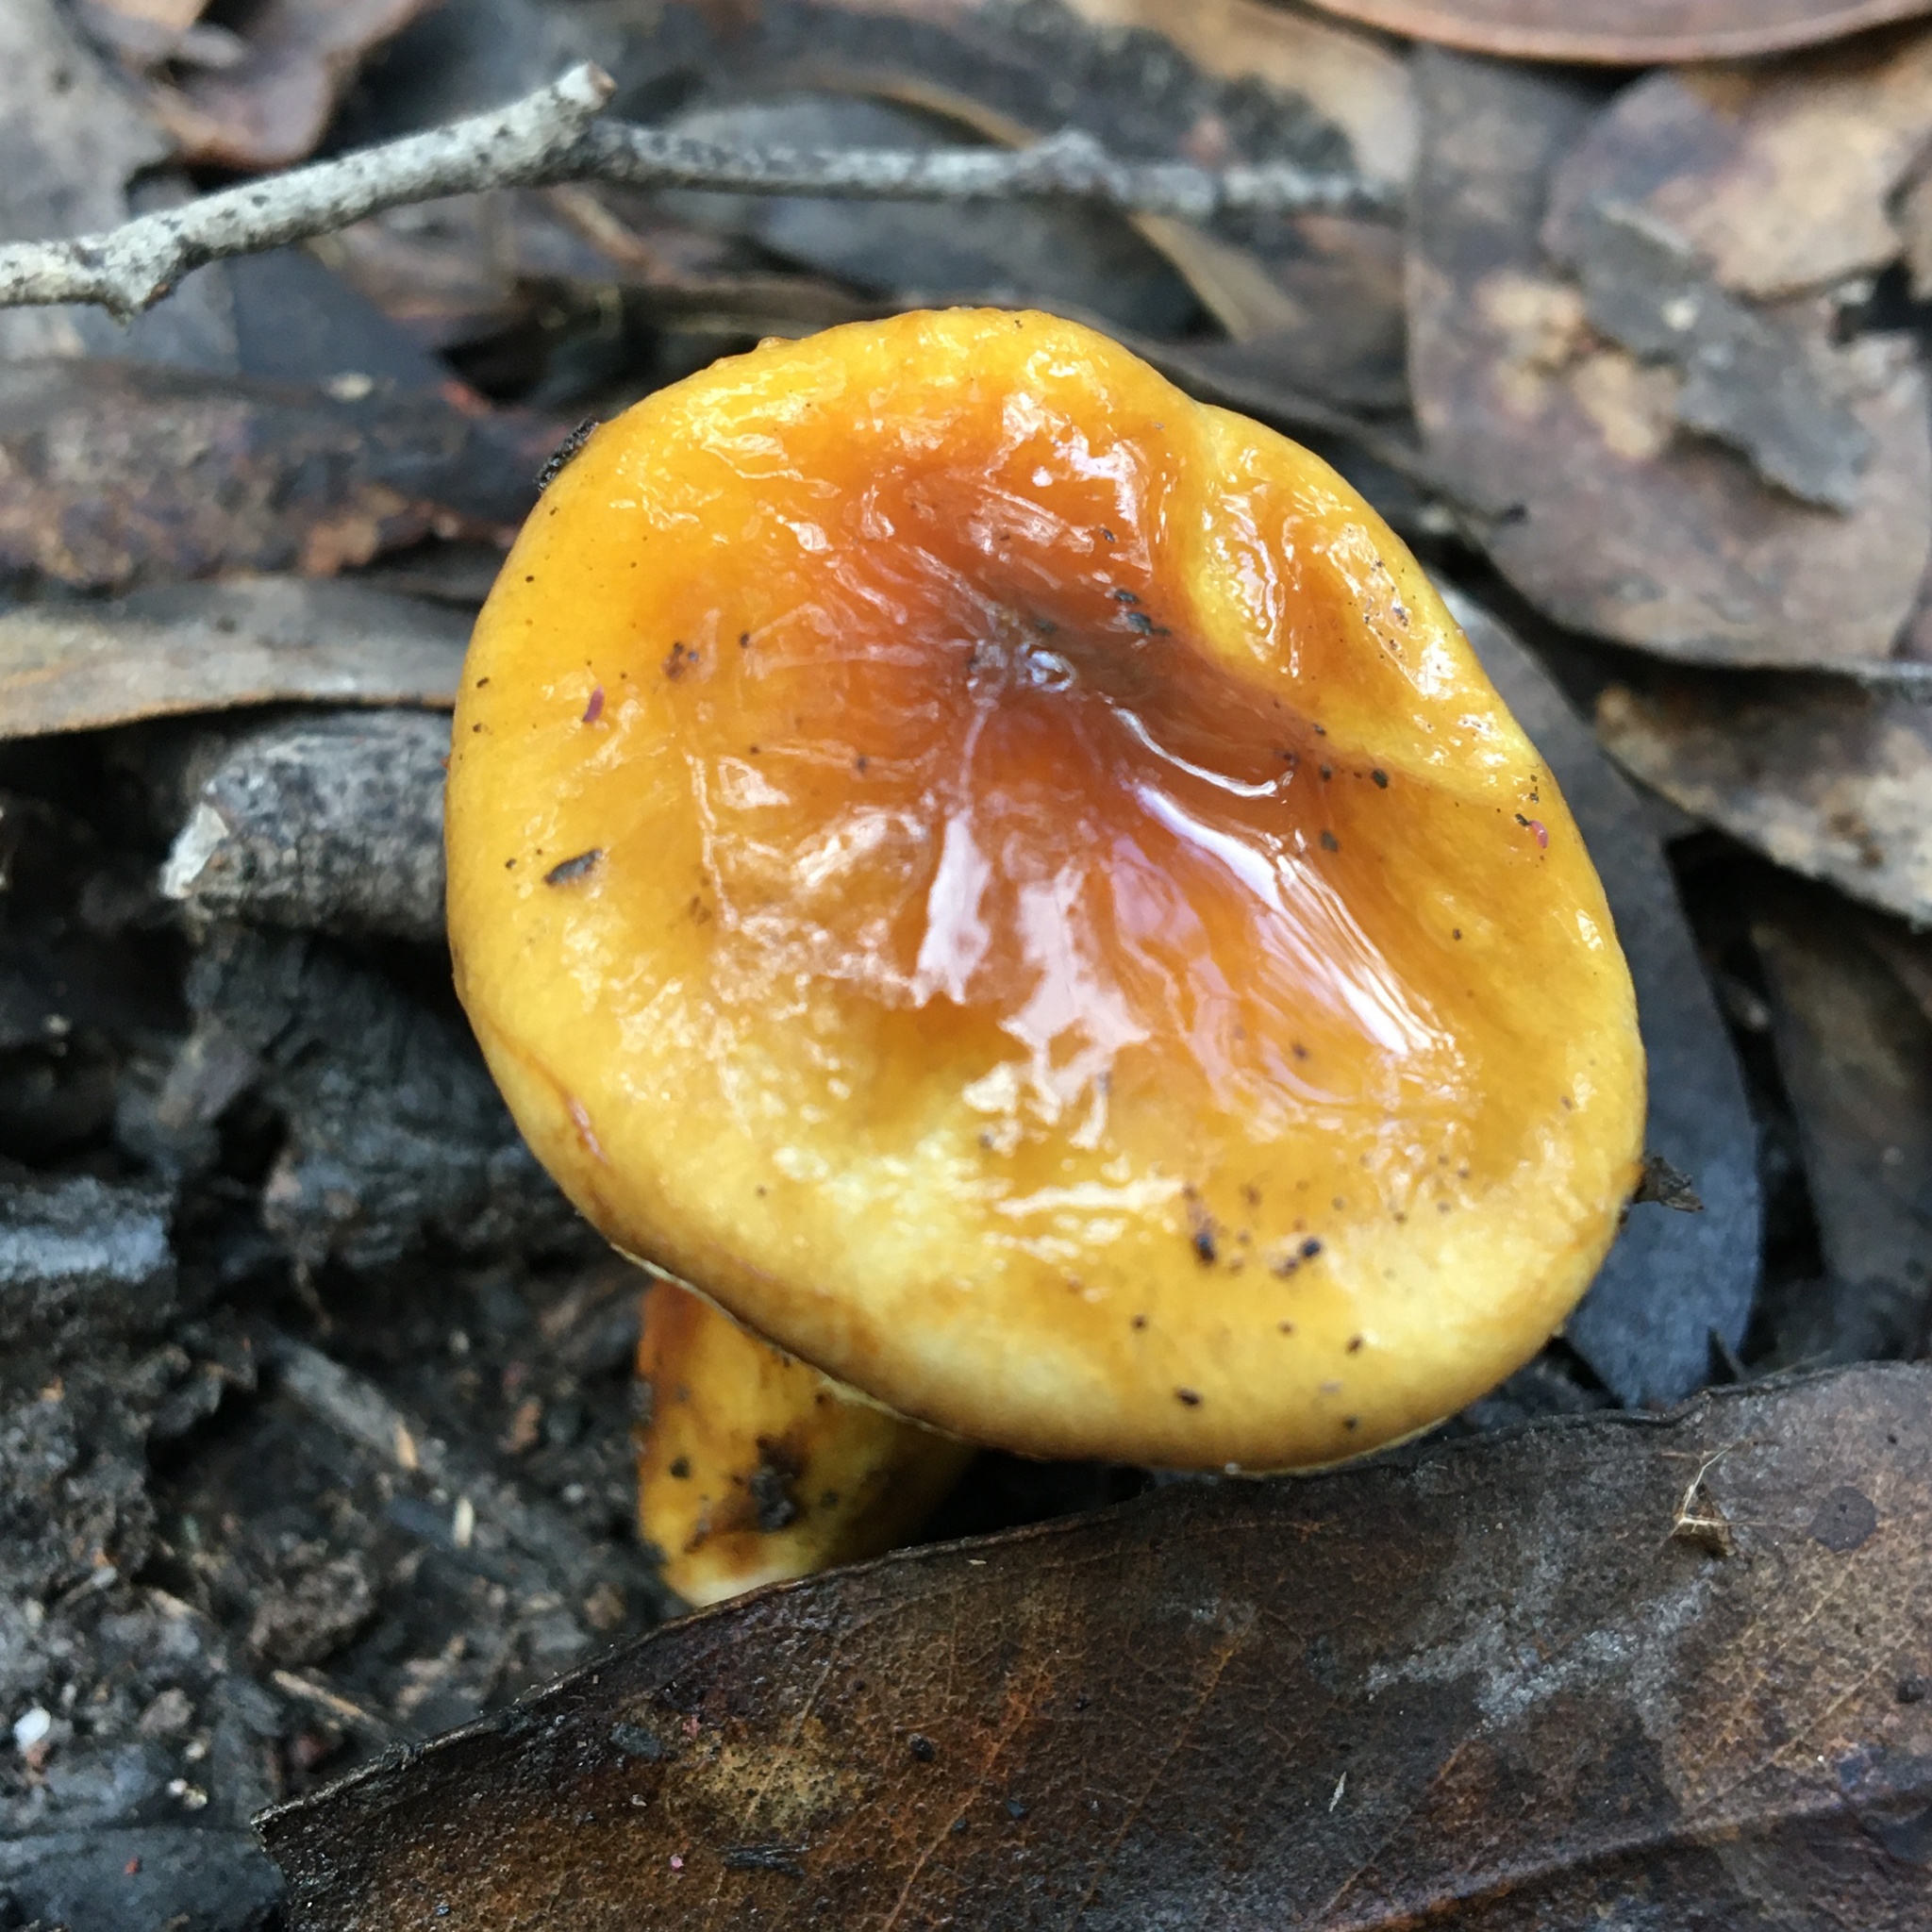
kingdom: Fungi
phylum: Basidiomycota
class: Agaricomycetes
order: Agaricales
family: Cortinariaceae
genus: Cortinarius
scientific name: Cortinarius sinapicolor
